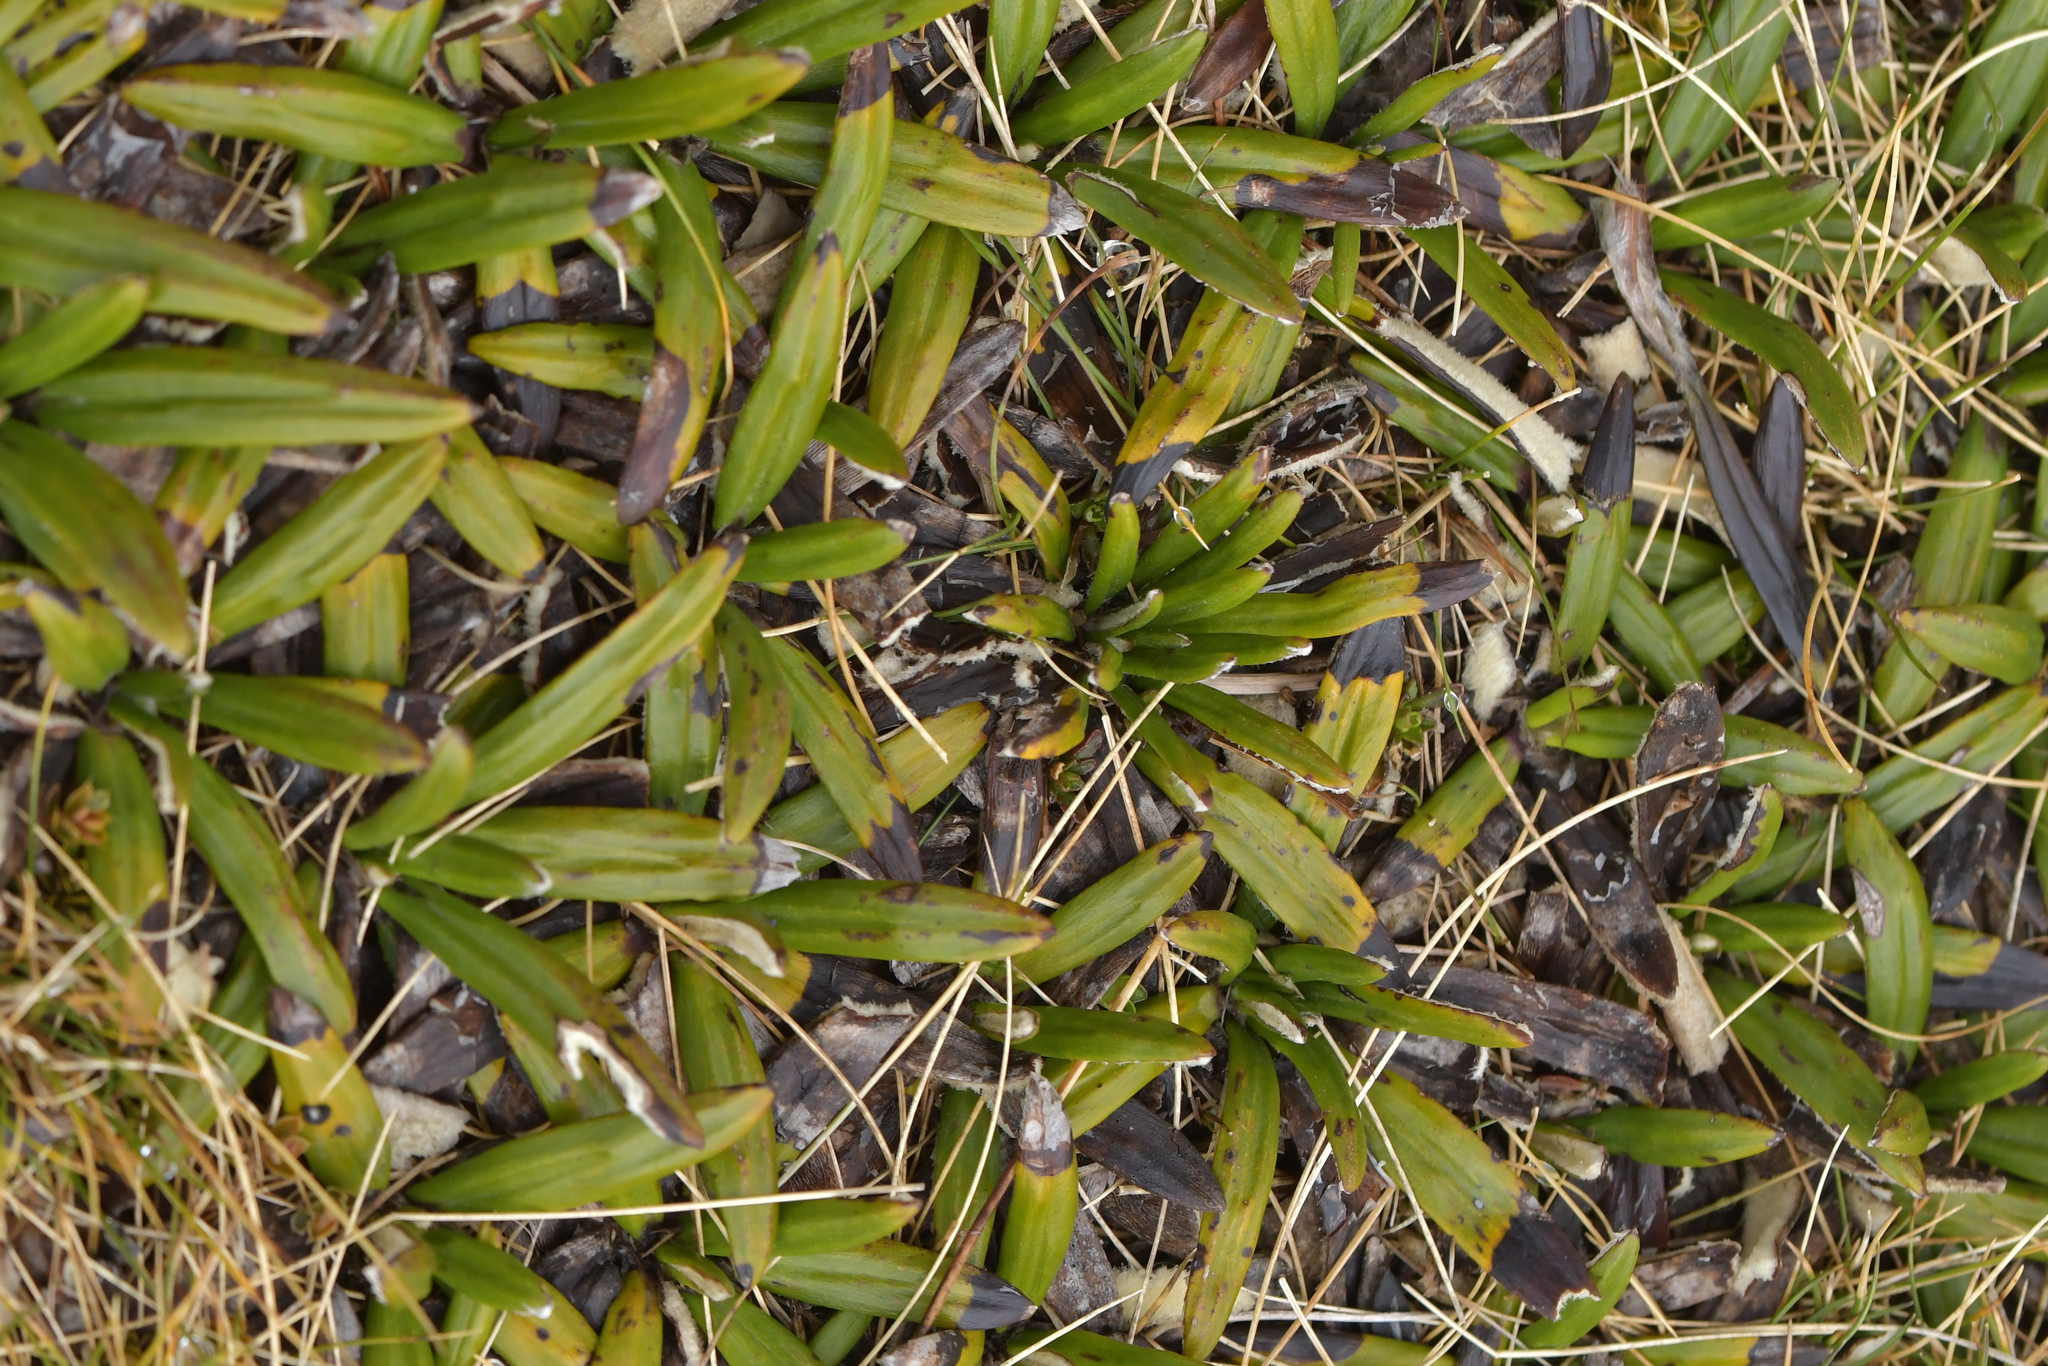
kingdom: Plantae
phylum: Tracheophyta
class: Magnoliopsida
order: Asterales
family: Asteraceae
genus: Celmisia
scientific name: Celmisia spectabilis
